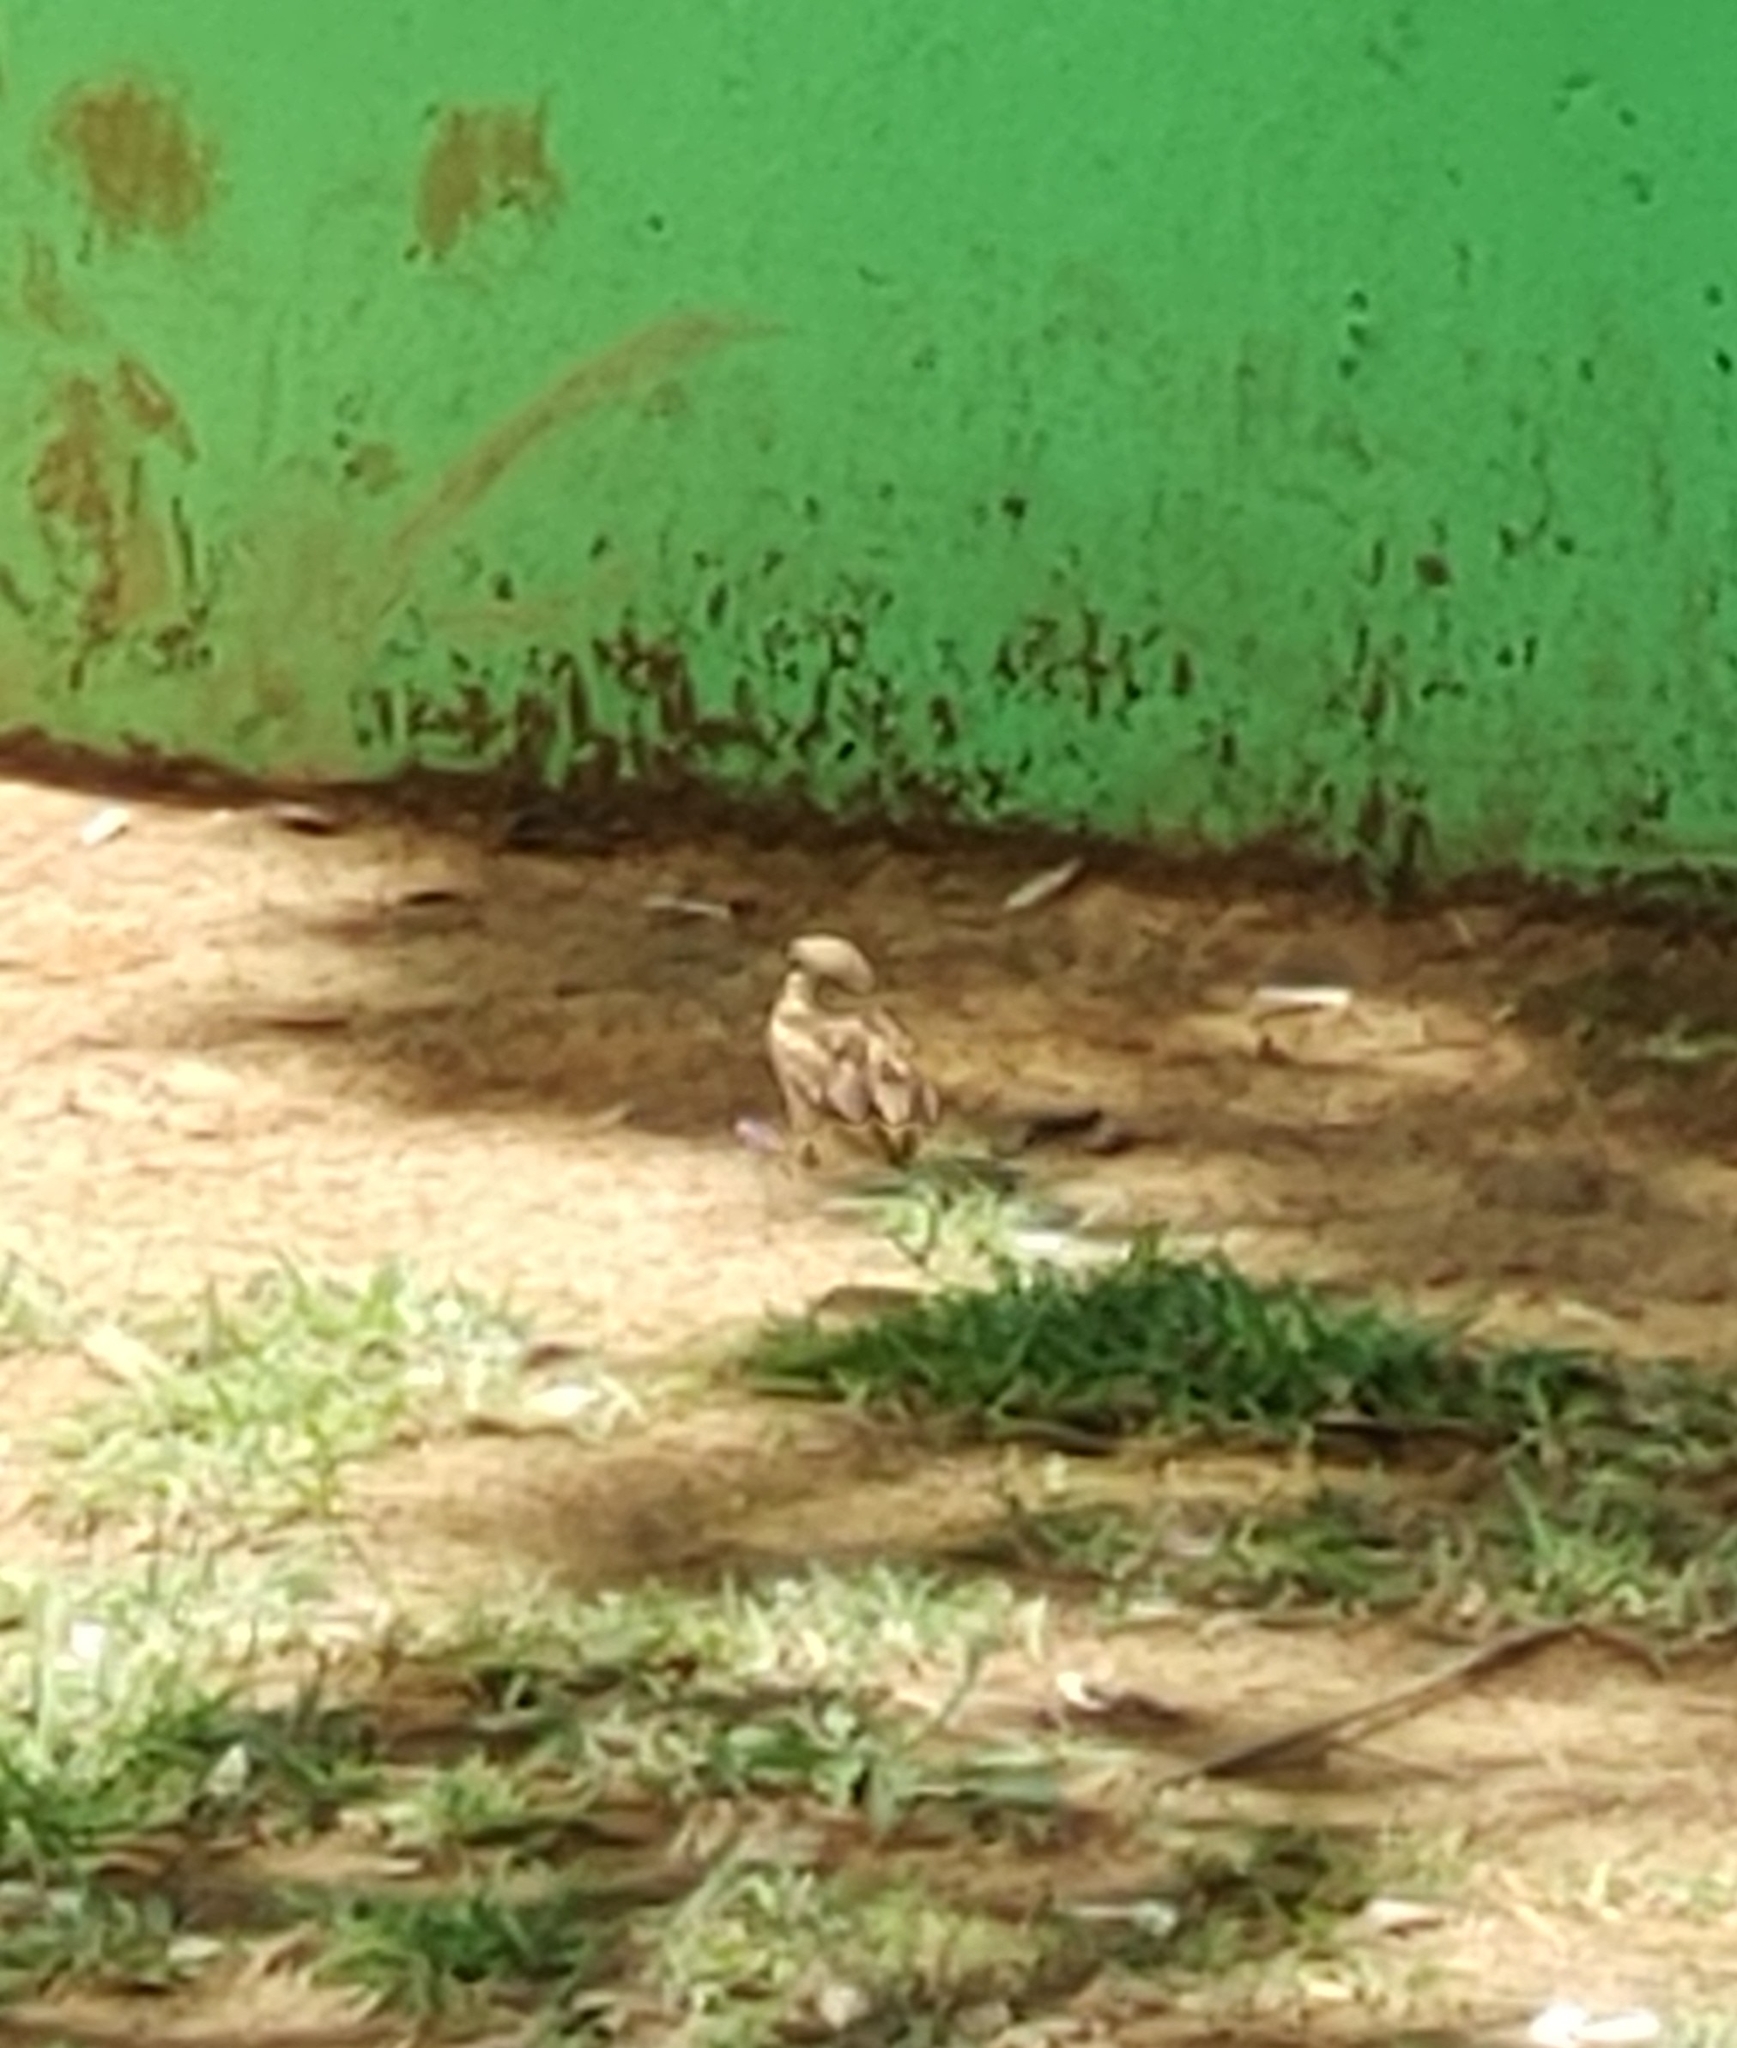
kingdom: Animalia
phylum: Chordata
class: Aves
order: Passeriformes
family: Passeridae
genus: Passer
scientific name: Passer domesticus
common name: House sparrow
